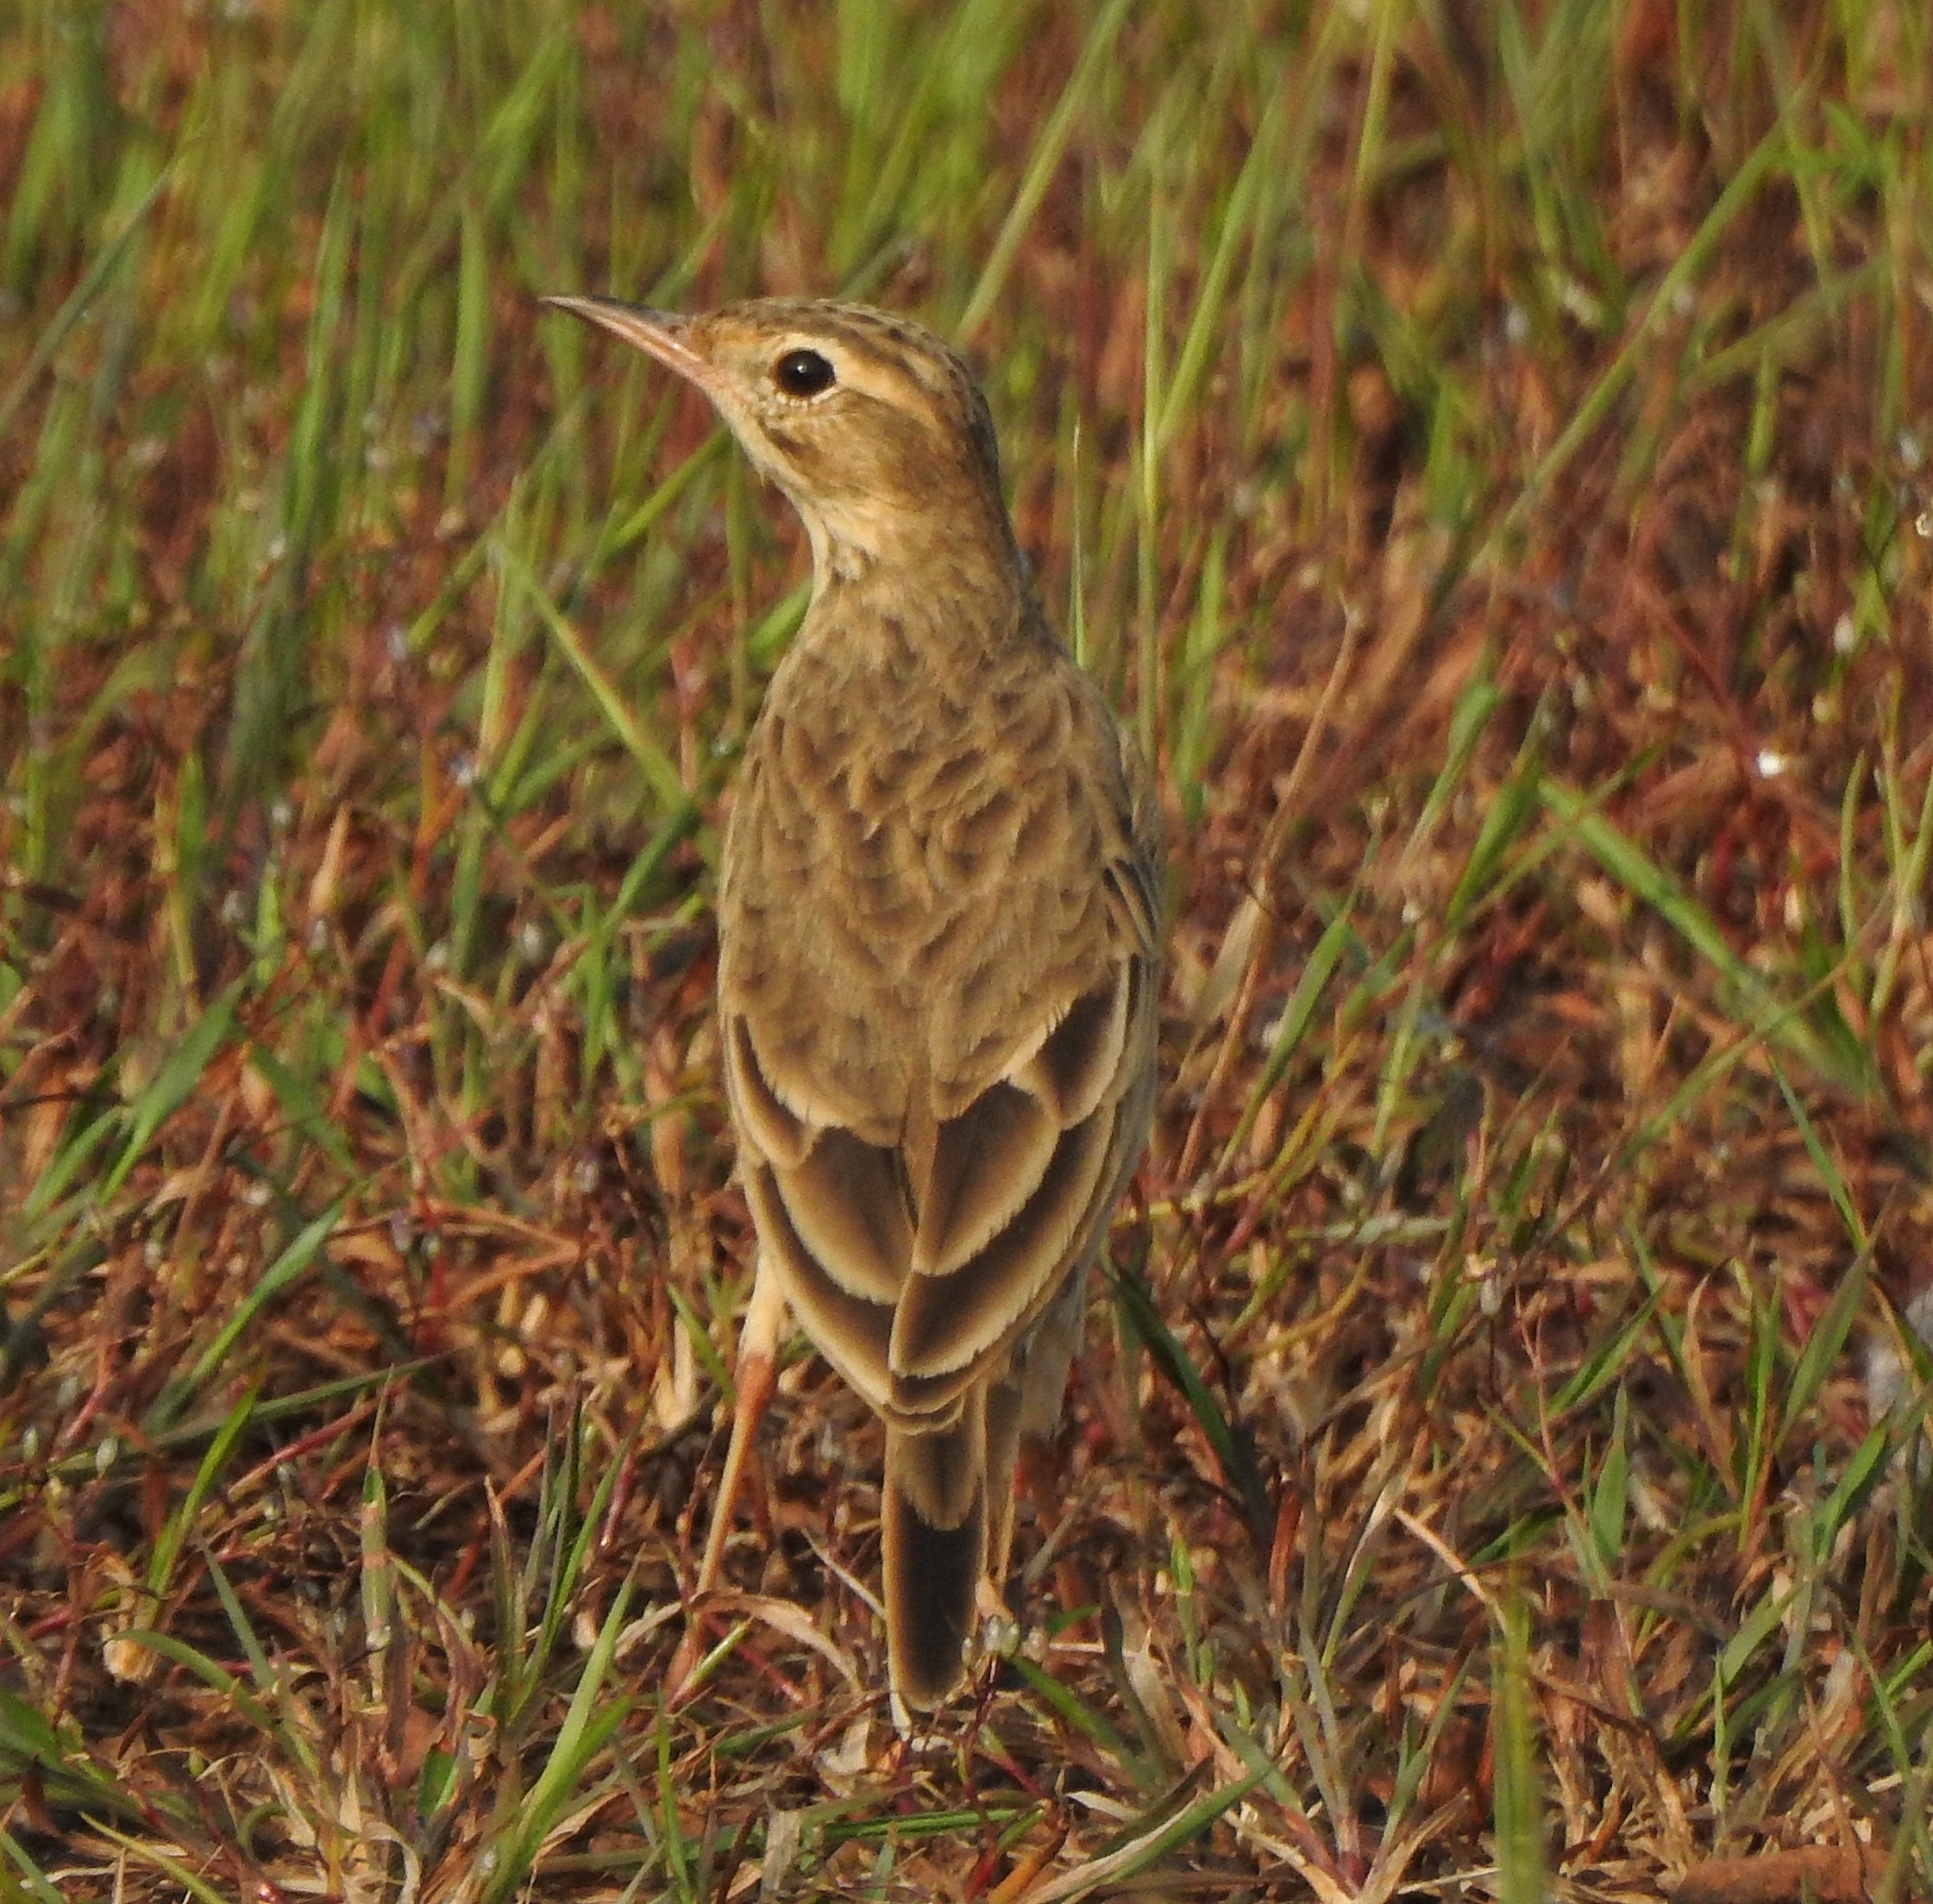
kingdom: Animalia
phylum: Chordata
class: Aves
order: Passeriformes
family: Motacillidae
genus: Anthus
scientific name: Anthus rufulus
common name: Paddyfield pipit
